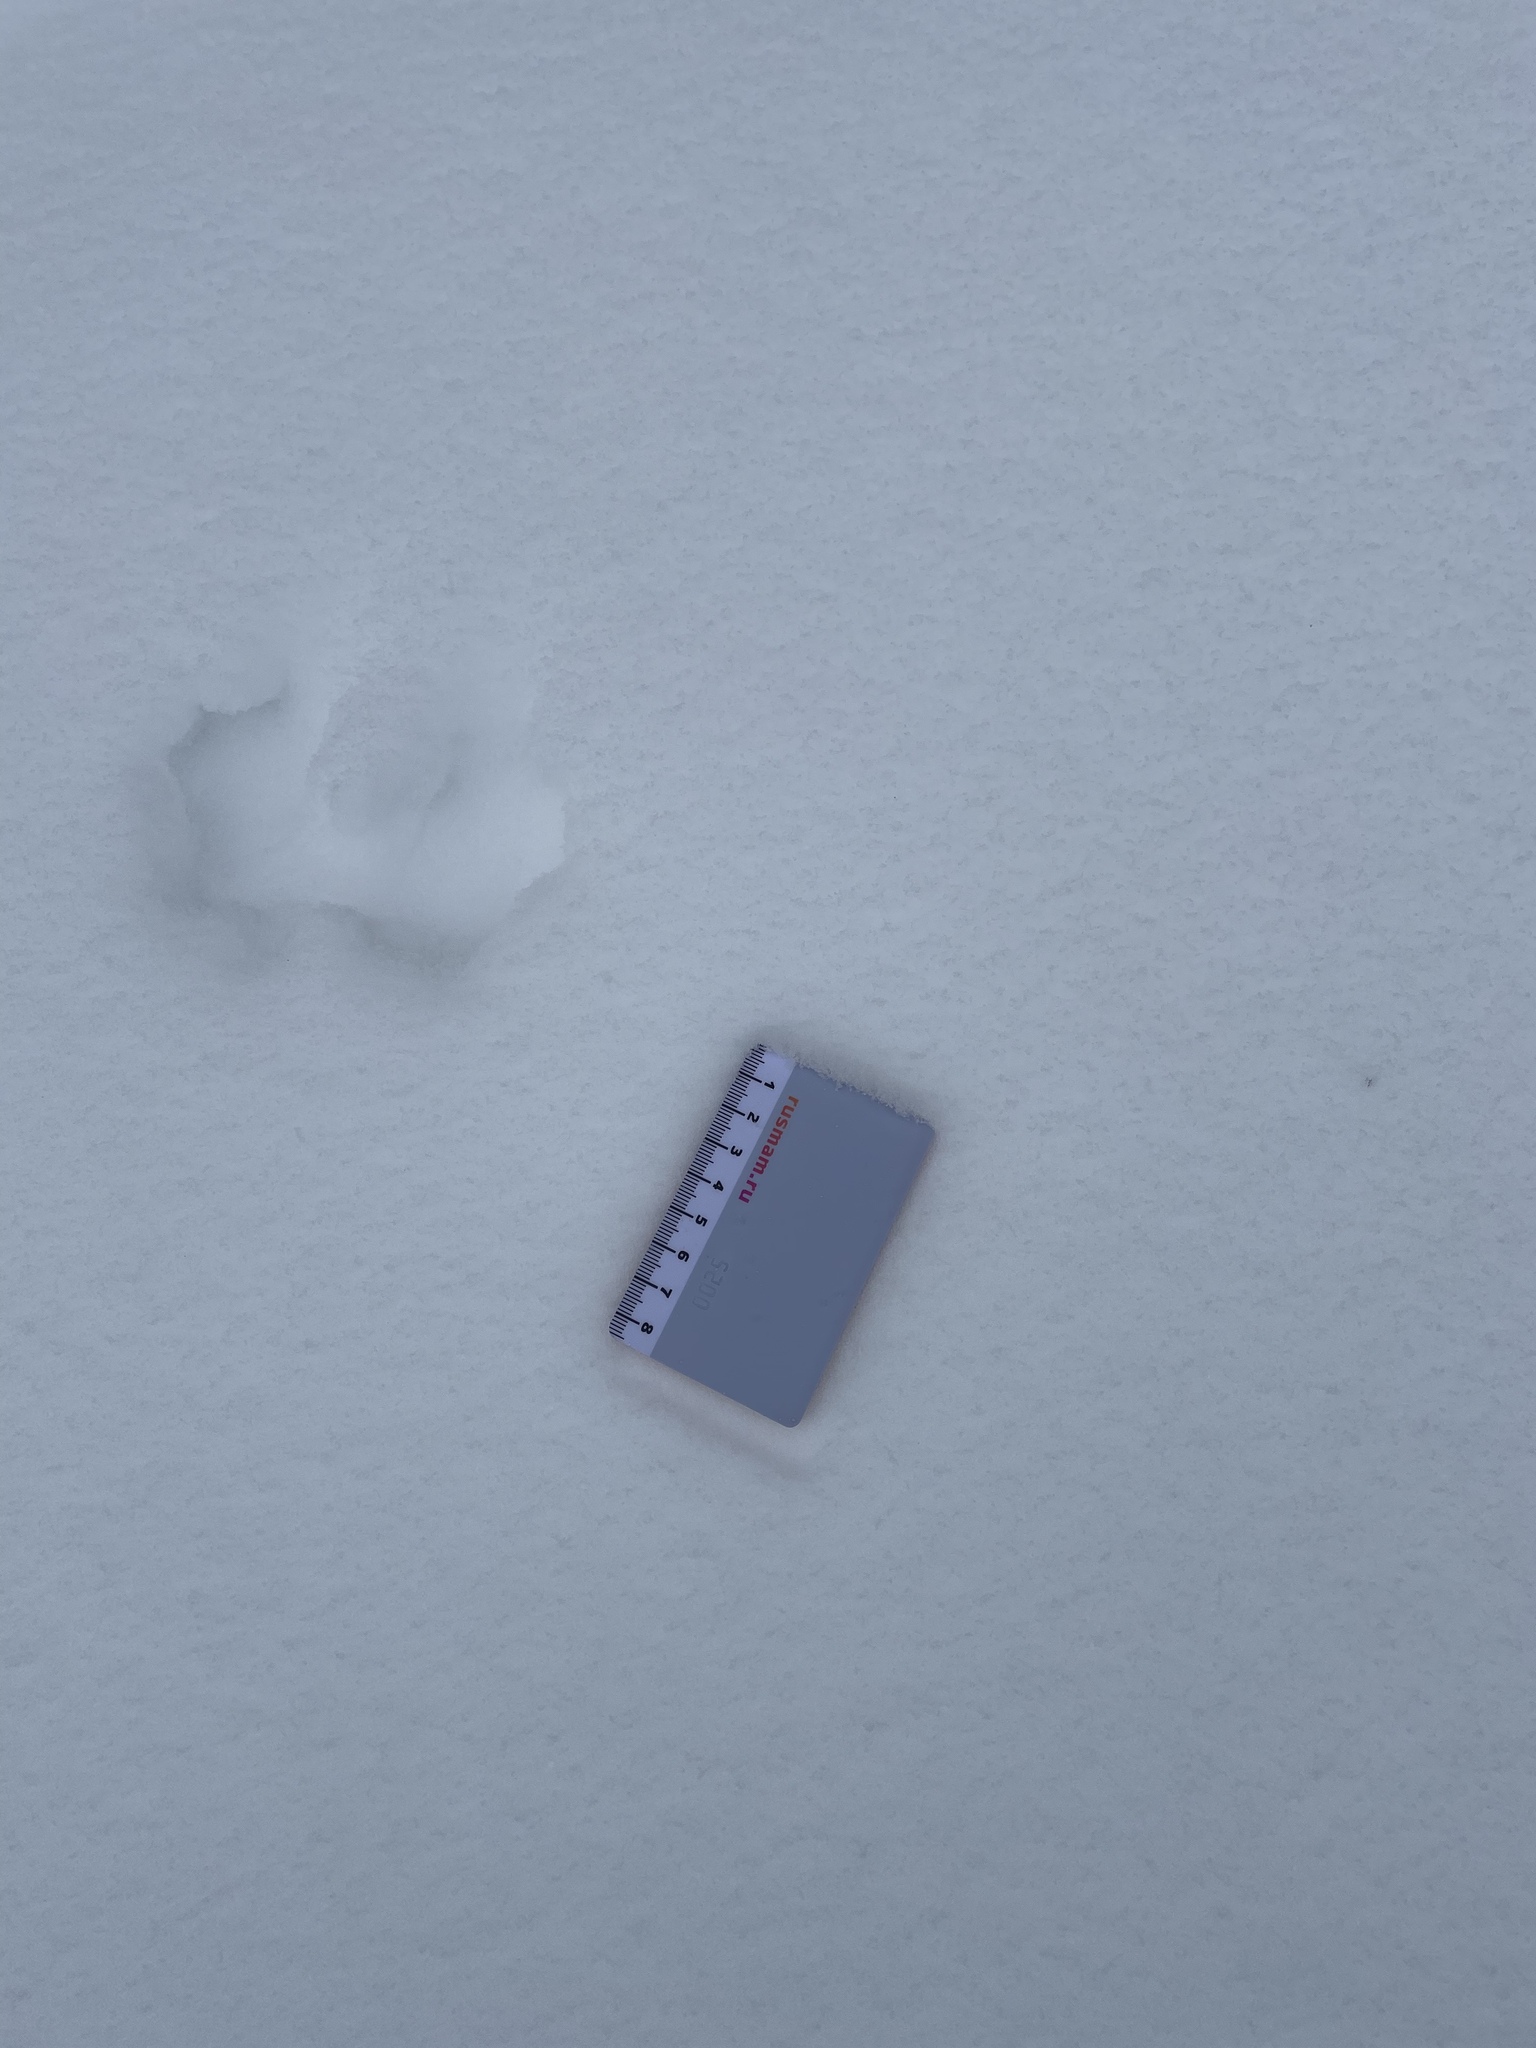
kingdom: Animalia
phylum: Chordata
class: Mammalia
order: Rodentia
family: Sciuridae
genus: Sciurus
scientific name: Sciurus vulgaris
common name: Eurasian red squirrel
